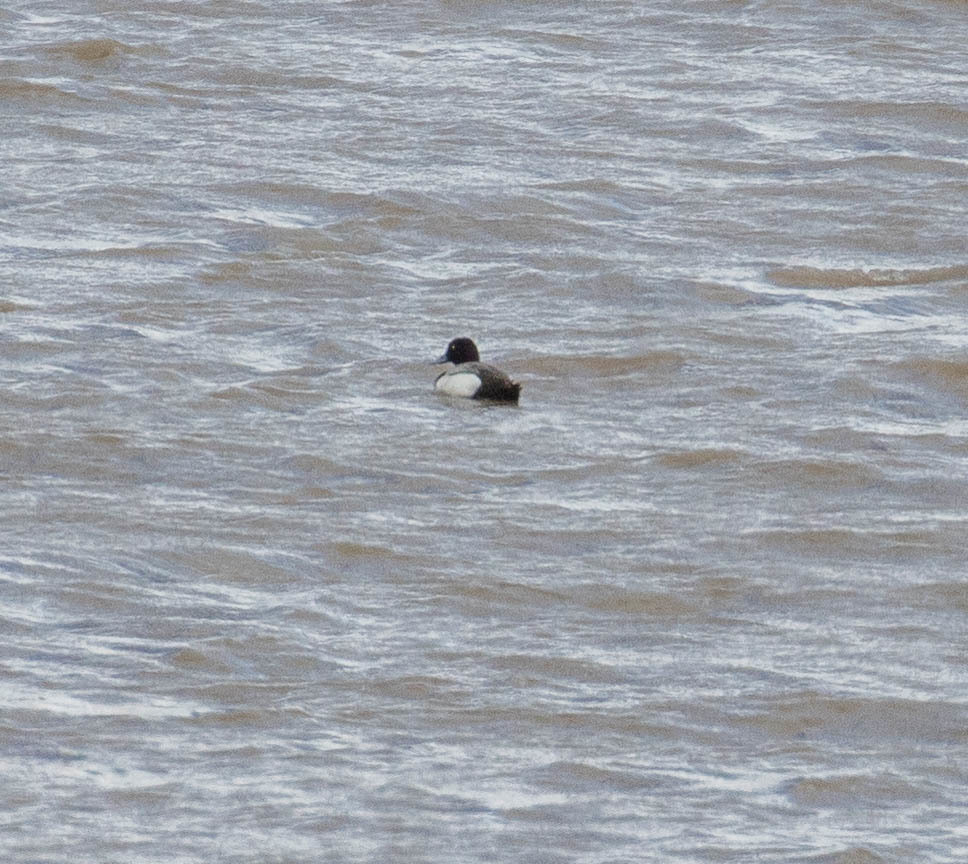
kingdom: Animalia
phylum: Chordata
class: Aves
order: Anseriformes
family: Anatidae
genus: Aythya
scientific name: Aythya affinis
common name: Lesser scaup
